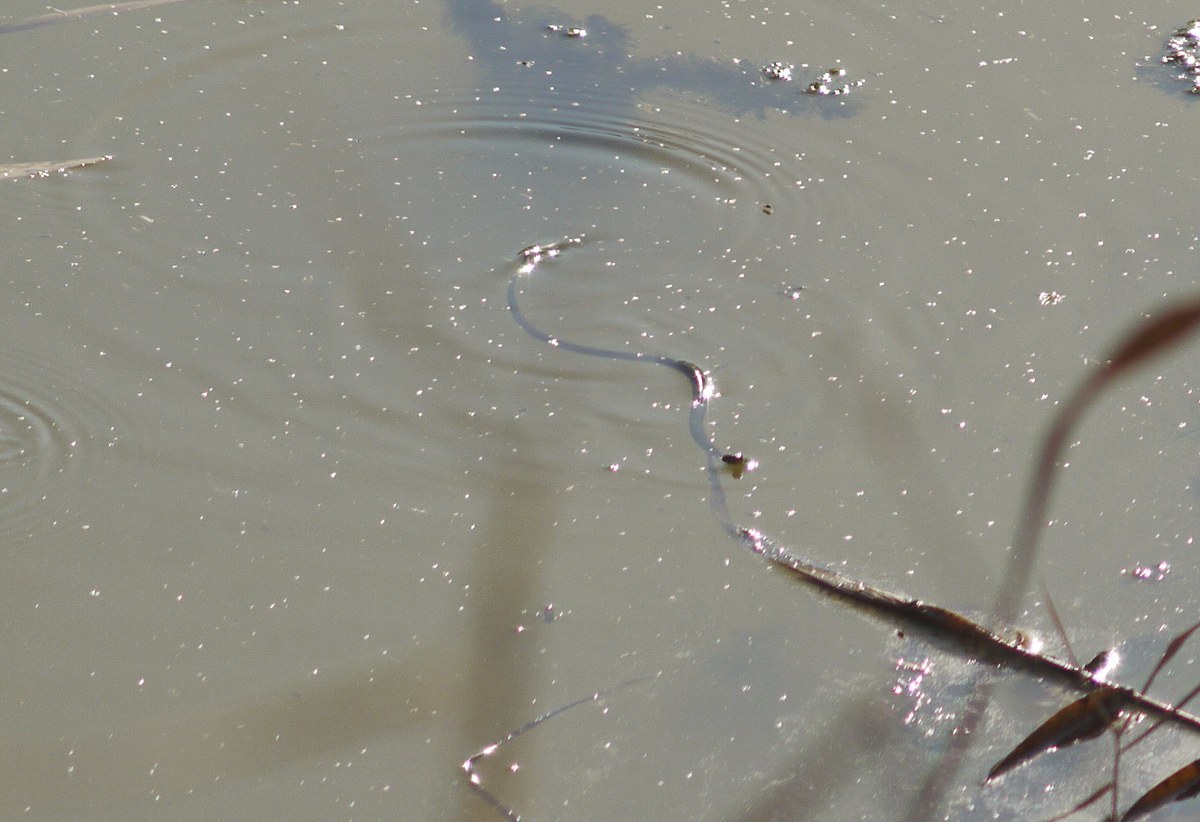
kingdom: Animalia
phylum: Chordata
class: Squamata
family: Colubridae
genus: Natrix
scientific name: Natrix
